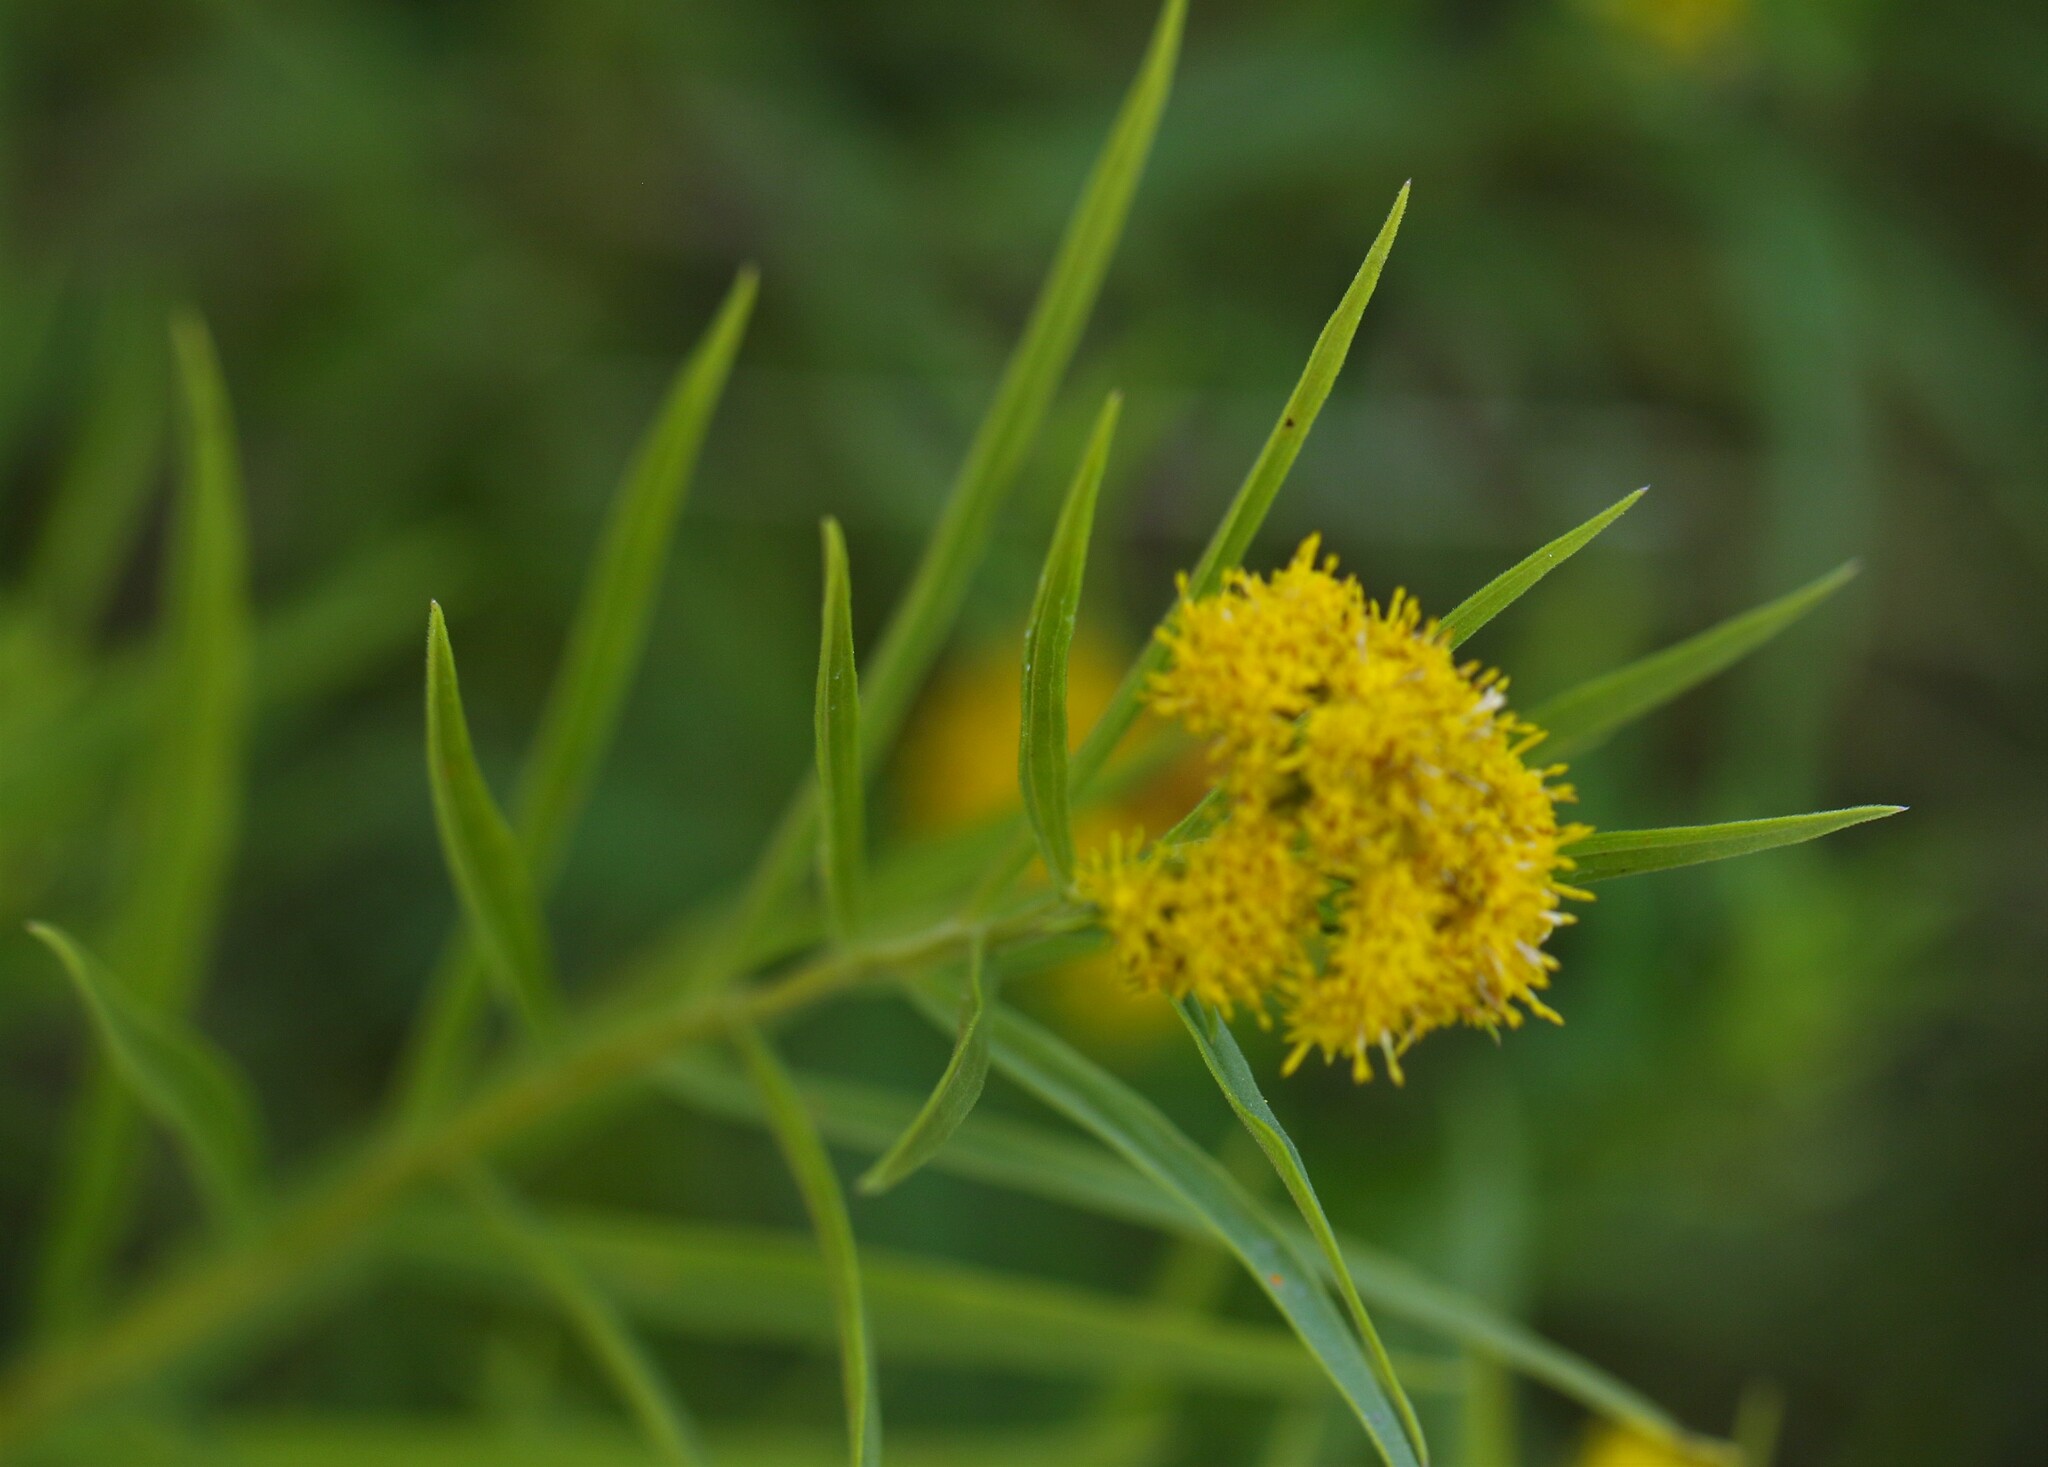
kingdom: Plantae
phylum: Tracheophyta
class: Magnoliopsida
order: Asterales
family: Asteraceae
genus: Euthamia
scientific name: Euthamia graminifolia
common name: Common goldentop
